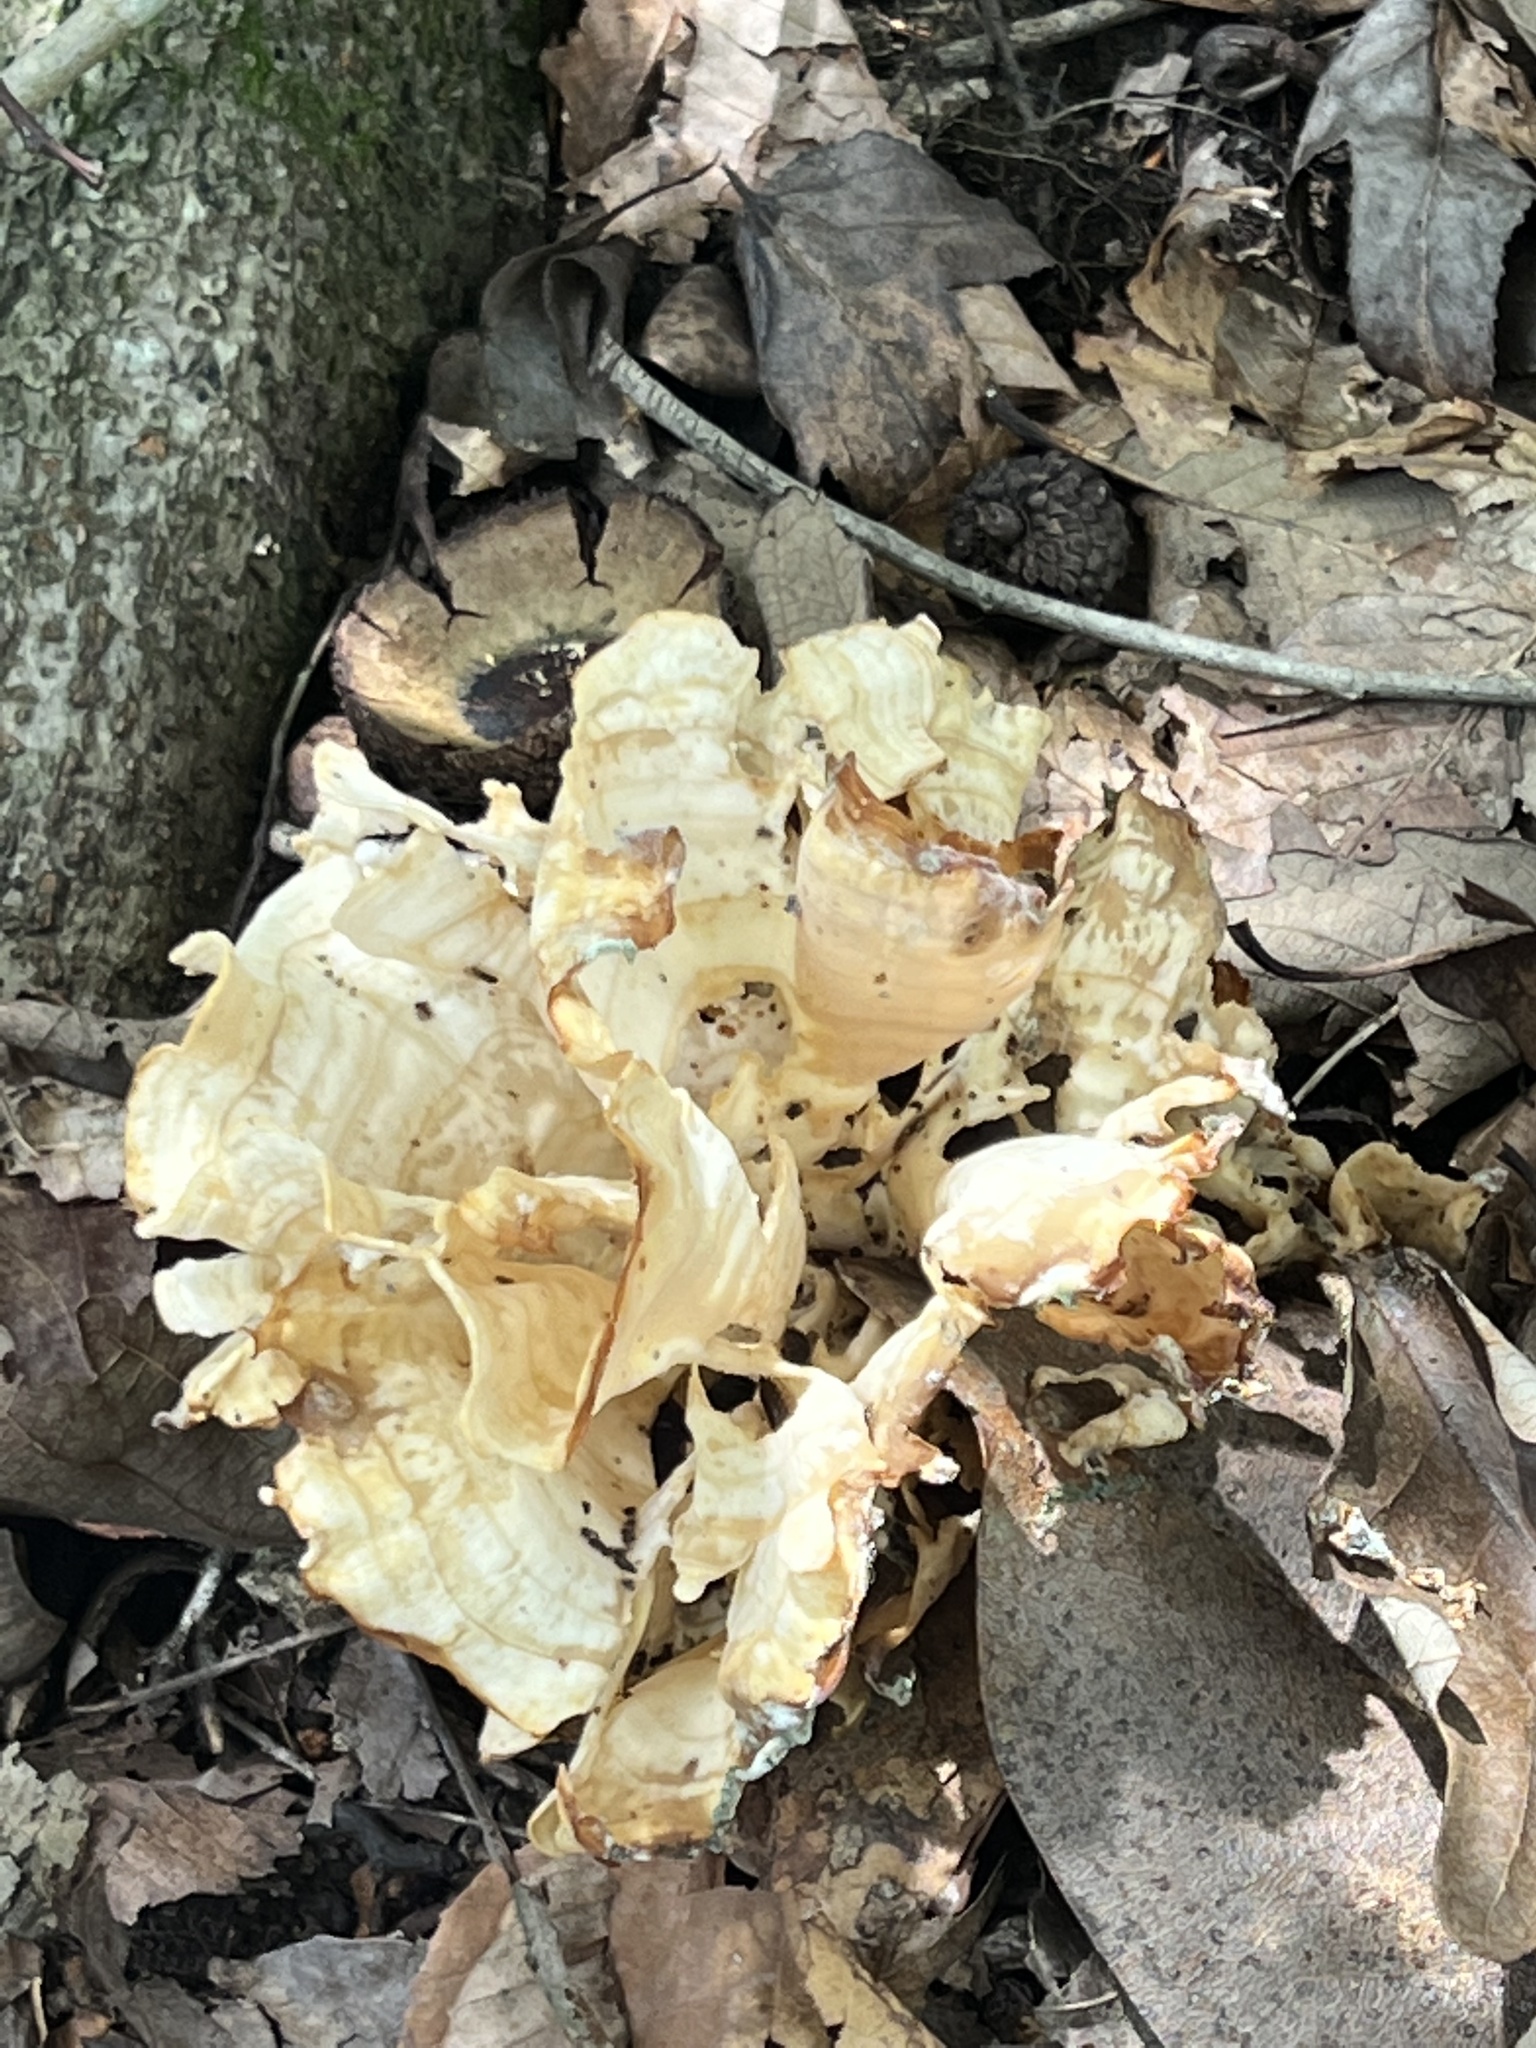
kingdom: Fungi
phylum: Basidiomycota
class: Agaricomycetes
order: Polyporales
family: Sparassidaceae
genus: Sparassis
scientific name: Sparassis spathulata
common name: Eastern cauliflower mushroom
